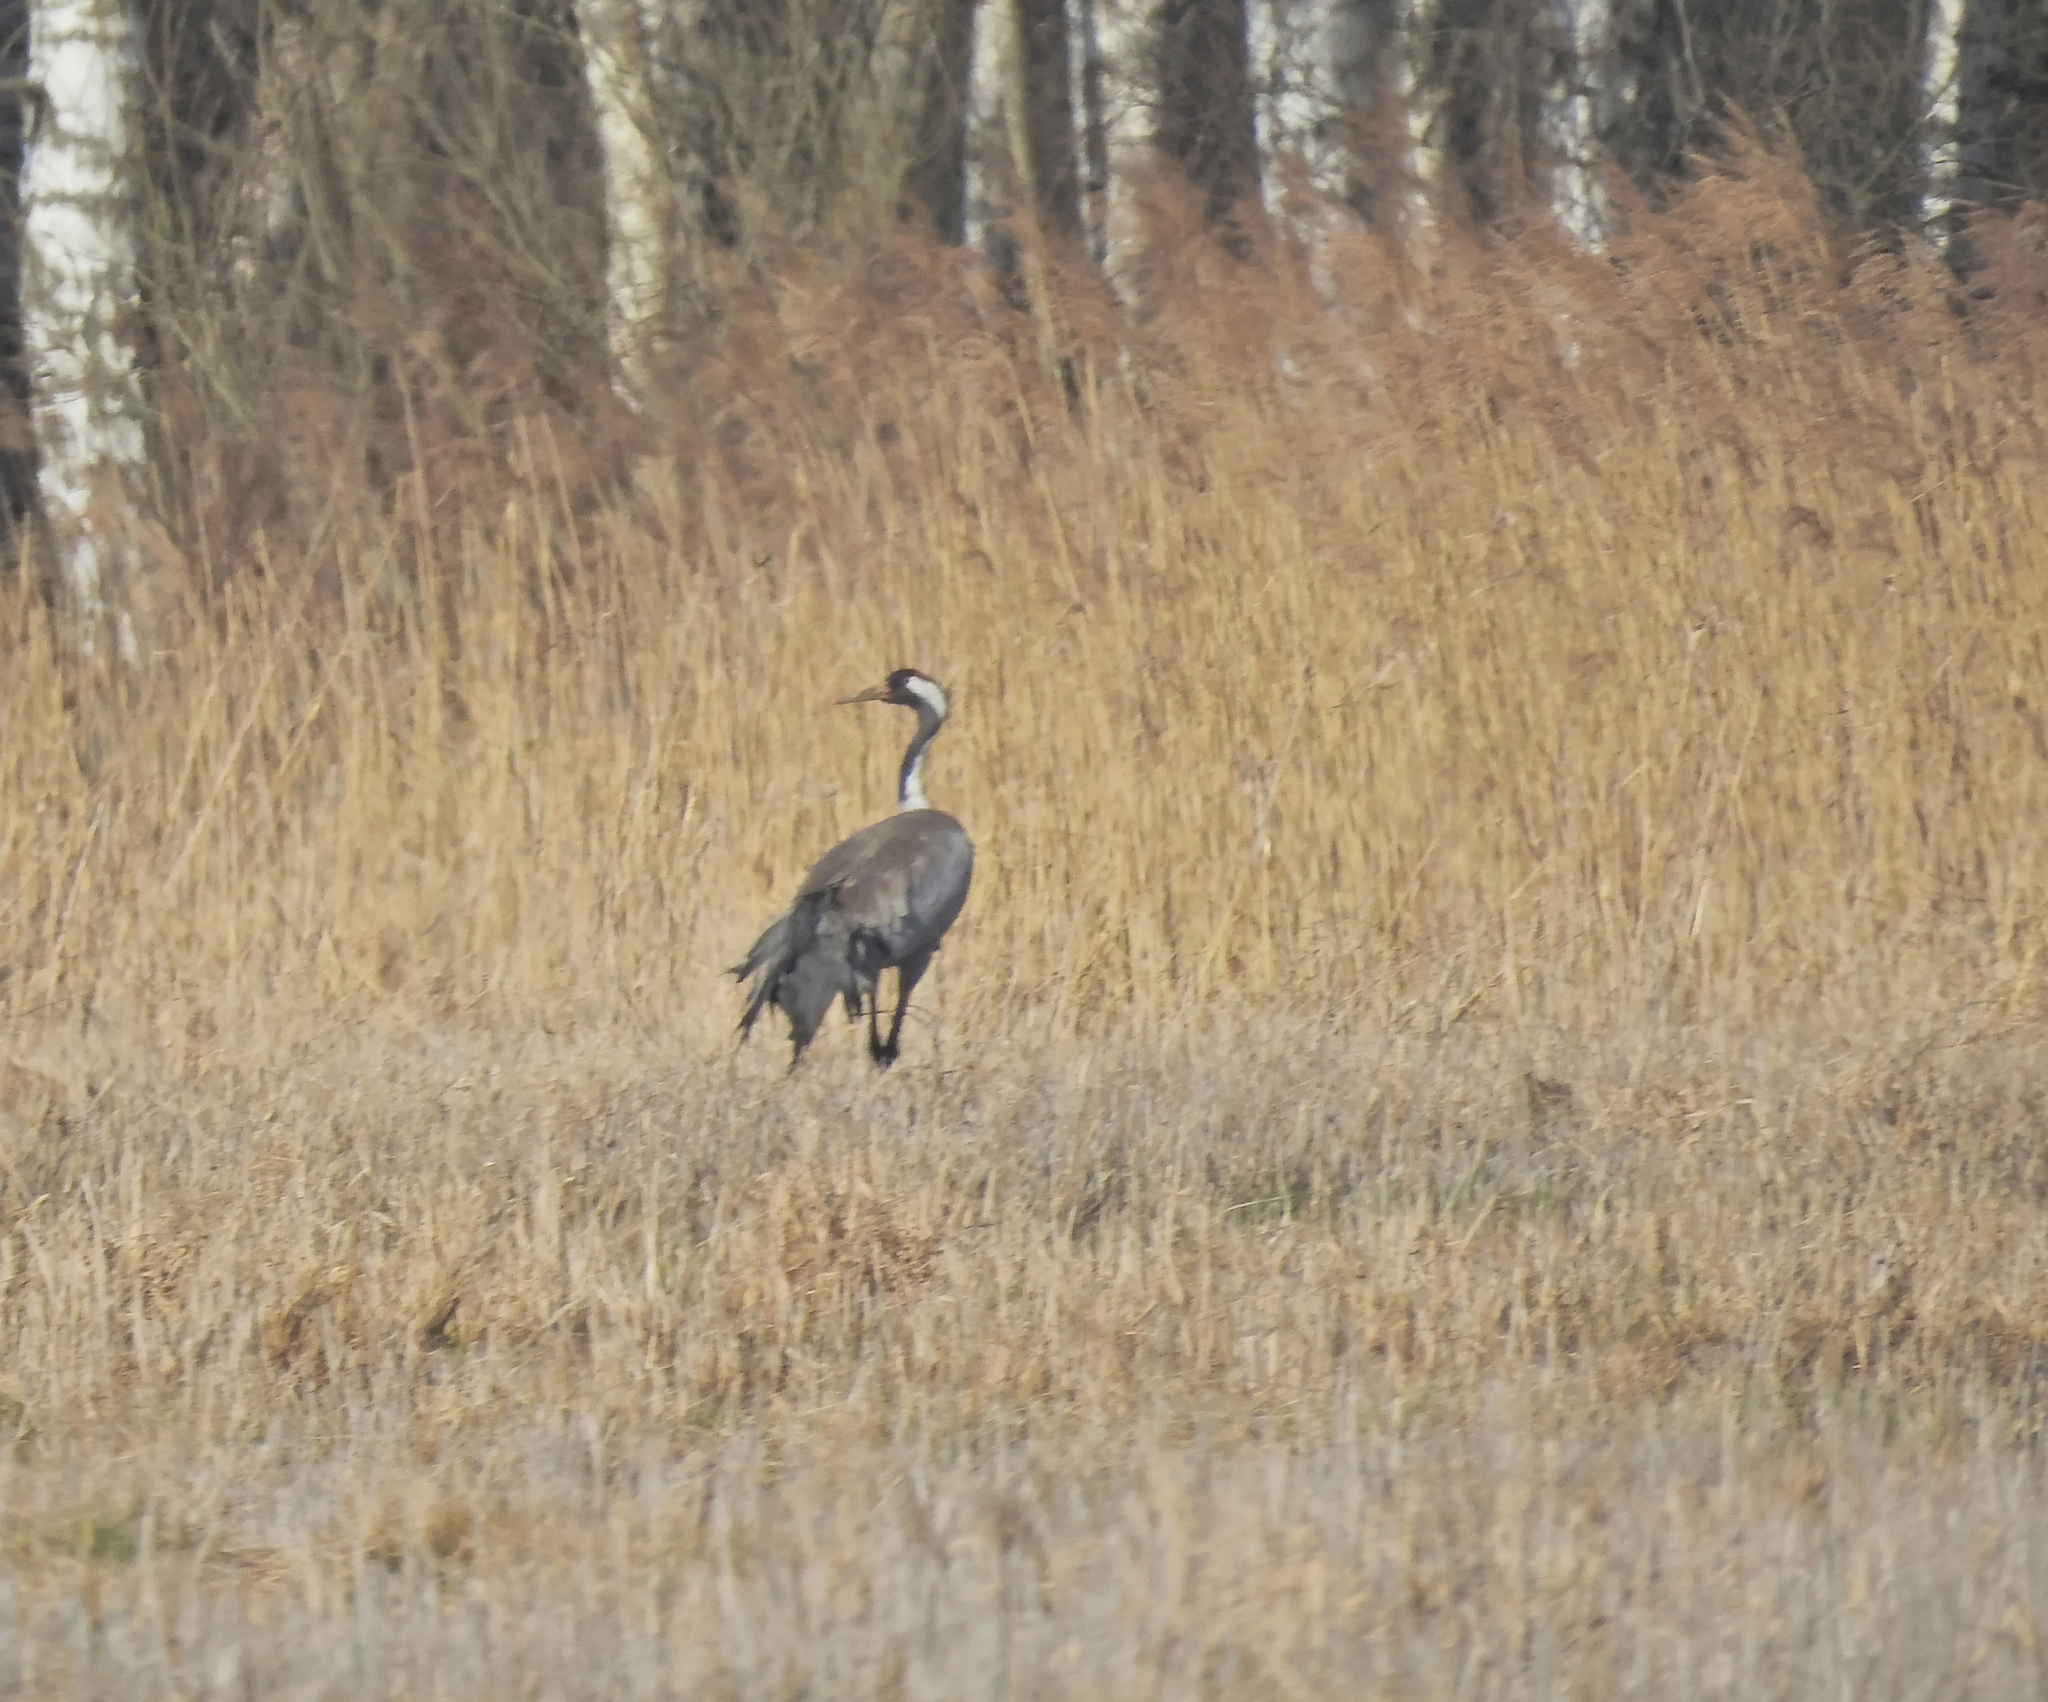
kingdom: Animalia
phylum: Chordata
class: Aves
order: Gruiformes
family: Gruidae
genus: Grus
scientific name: Grus grus
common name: Common crane
